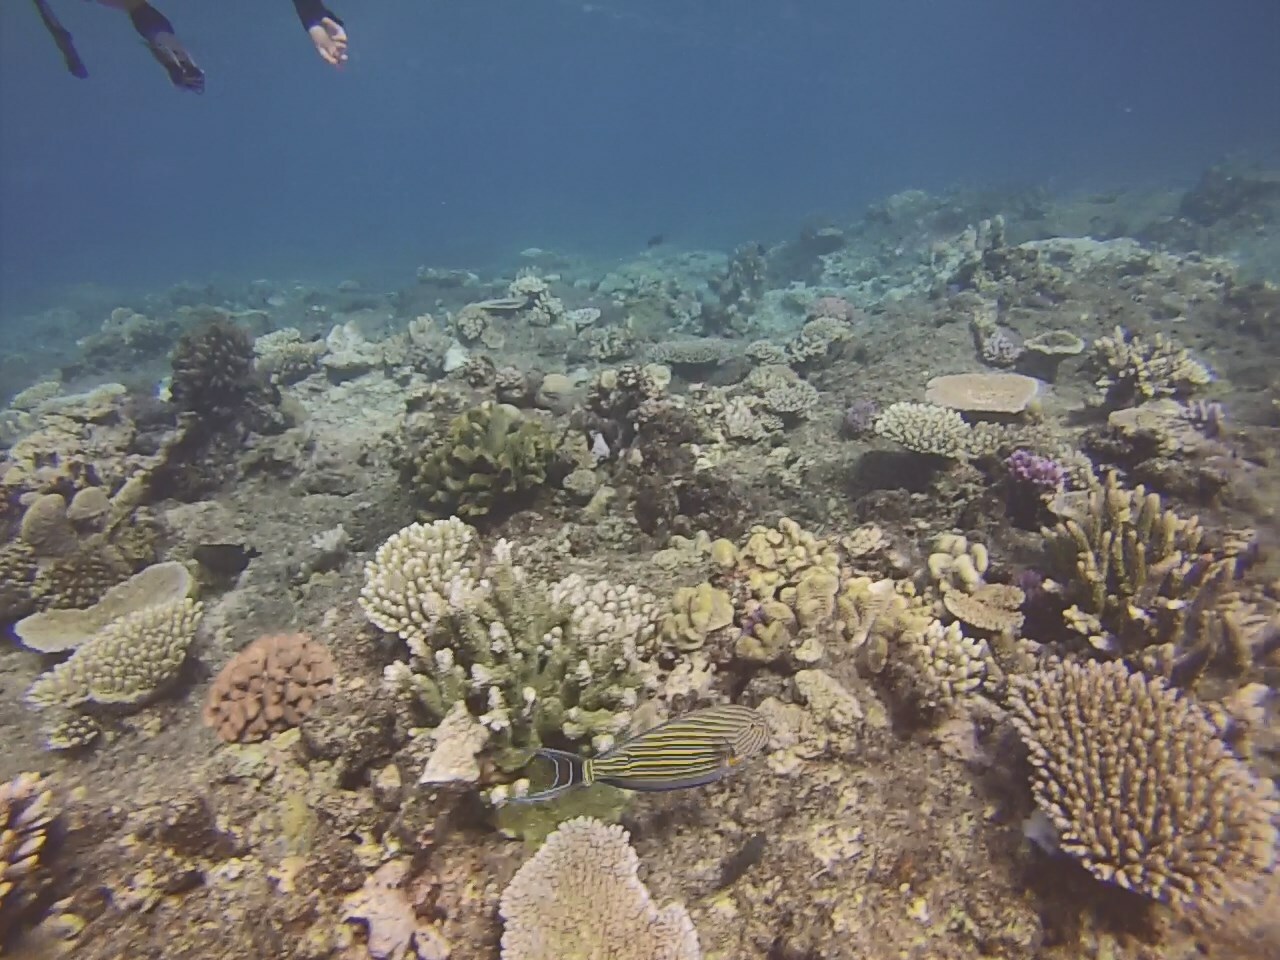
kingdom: Animalia
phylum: Chordata
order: Perciformes
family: Acanthuridae
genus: Acanthurus
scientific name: Acanthurus lineatus
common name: Striped surgeonfish
